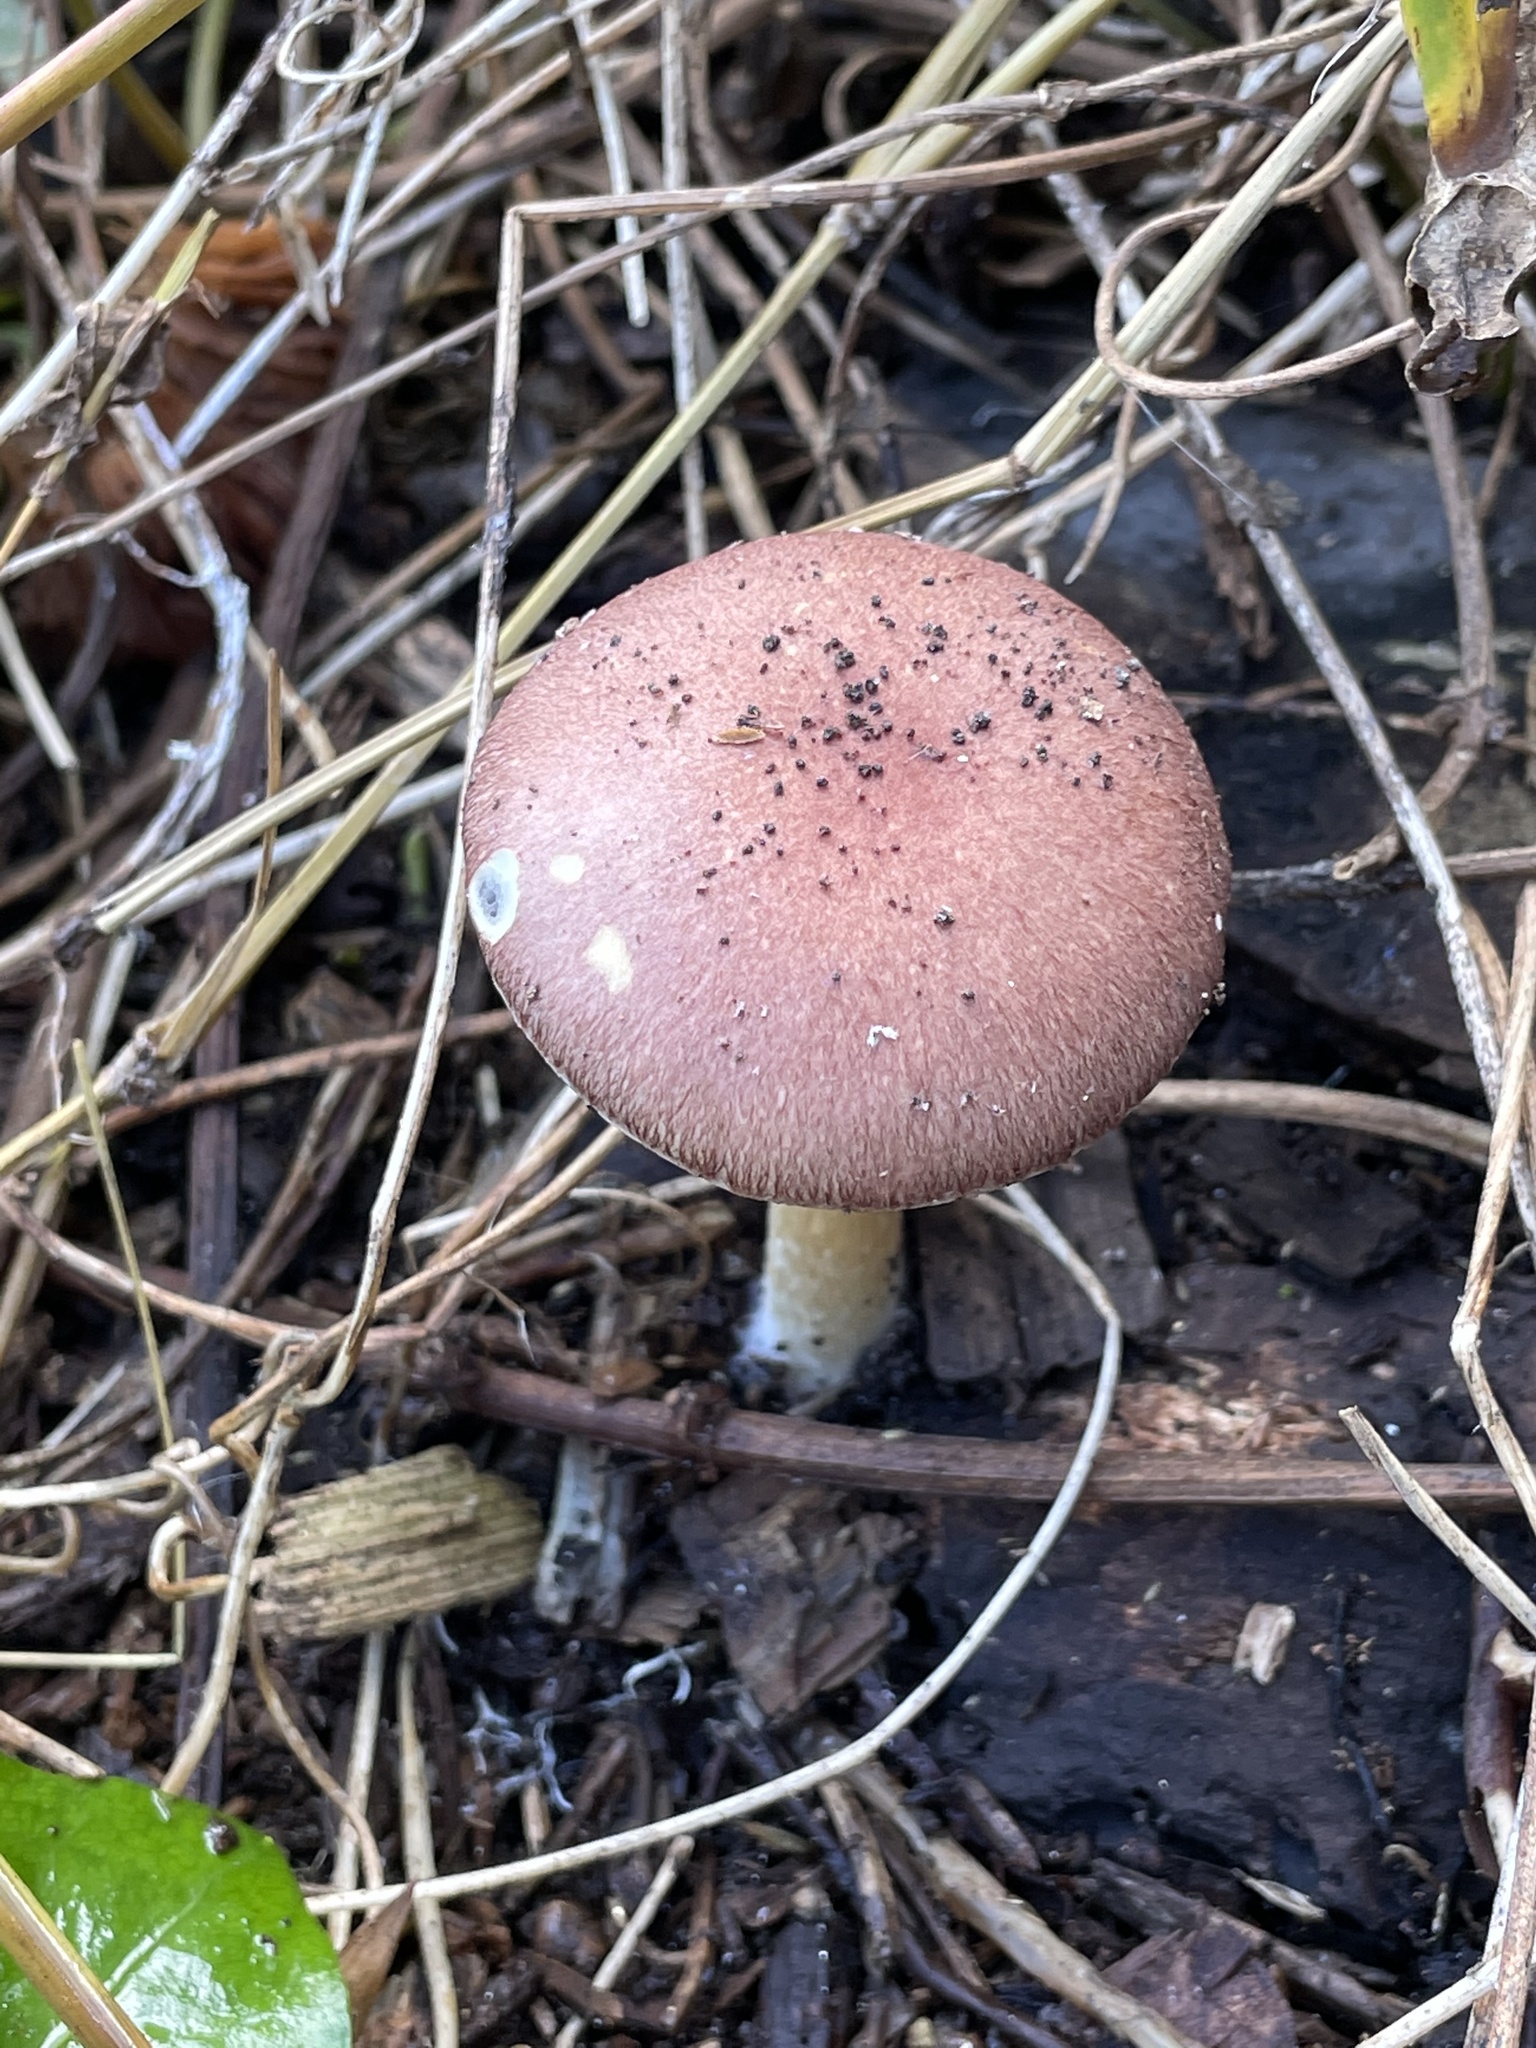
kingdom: Fungi
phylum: Basidiomycota
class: Agaricomycetes
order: Agaricales
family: Strophariaceae
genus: Stropharia
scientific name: Stropharia rugosoannulata
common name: Wine roundhead
